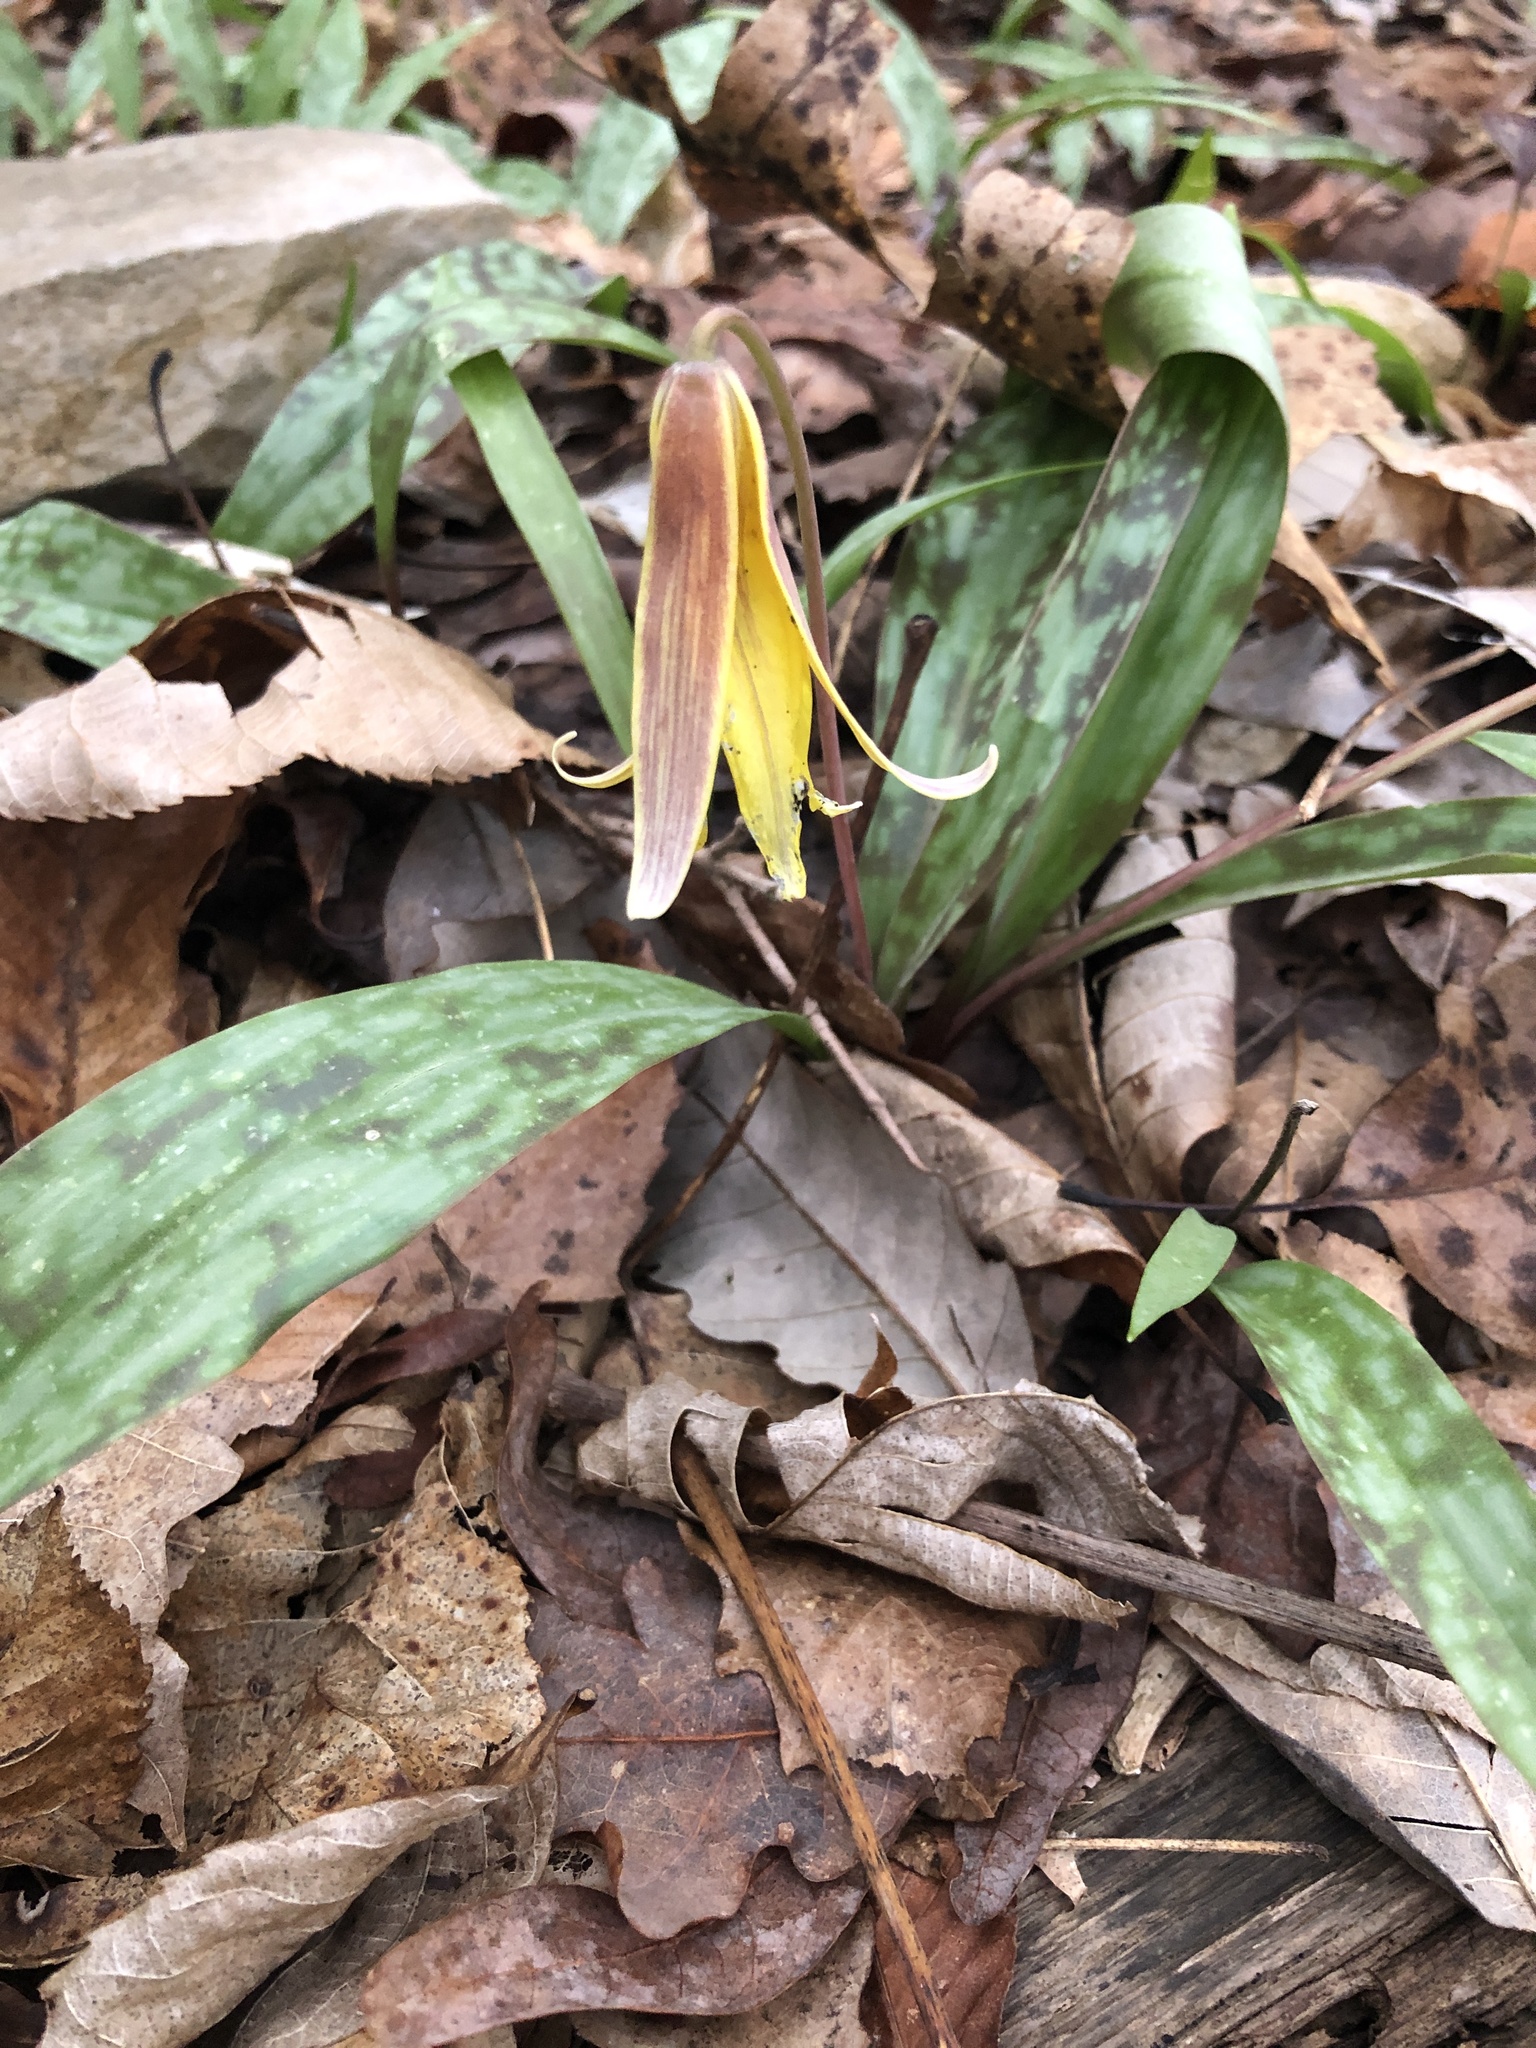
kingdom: Plantae
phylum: Tracheophyta
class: Liliopsida
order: Liliales
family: Liliaceae
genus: Erythronium
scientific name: Erythronium americanum
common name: Yellow adder's-tongue
